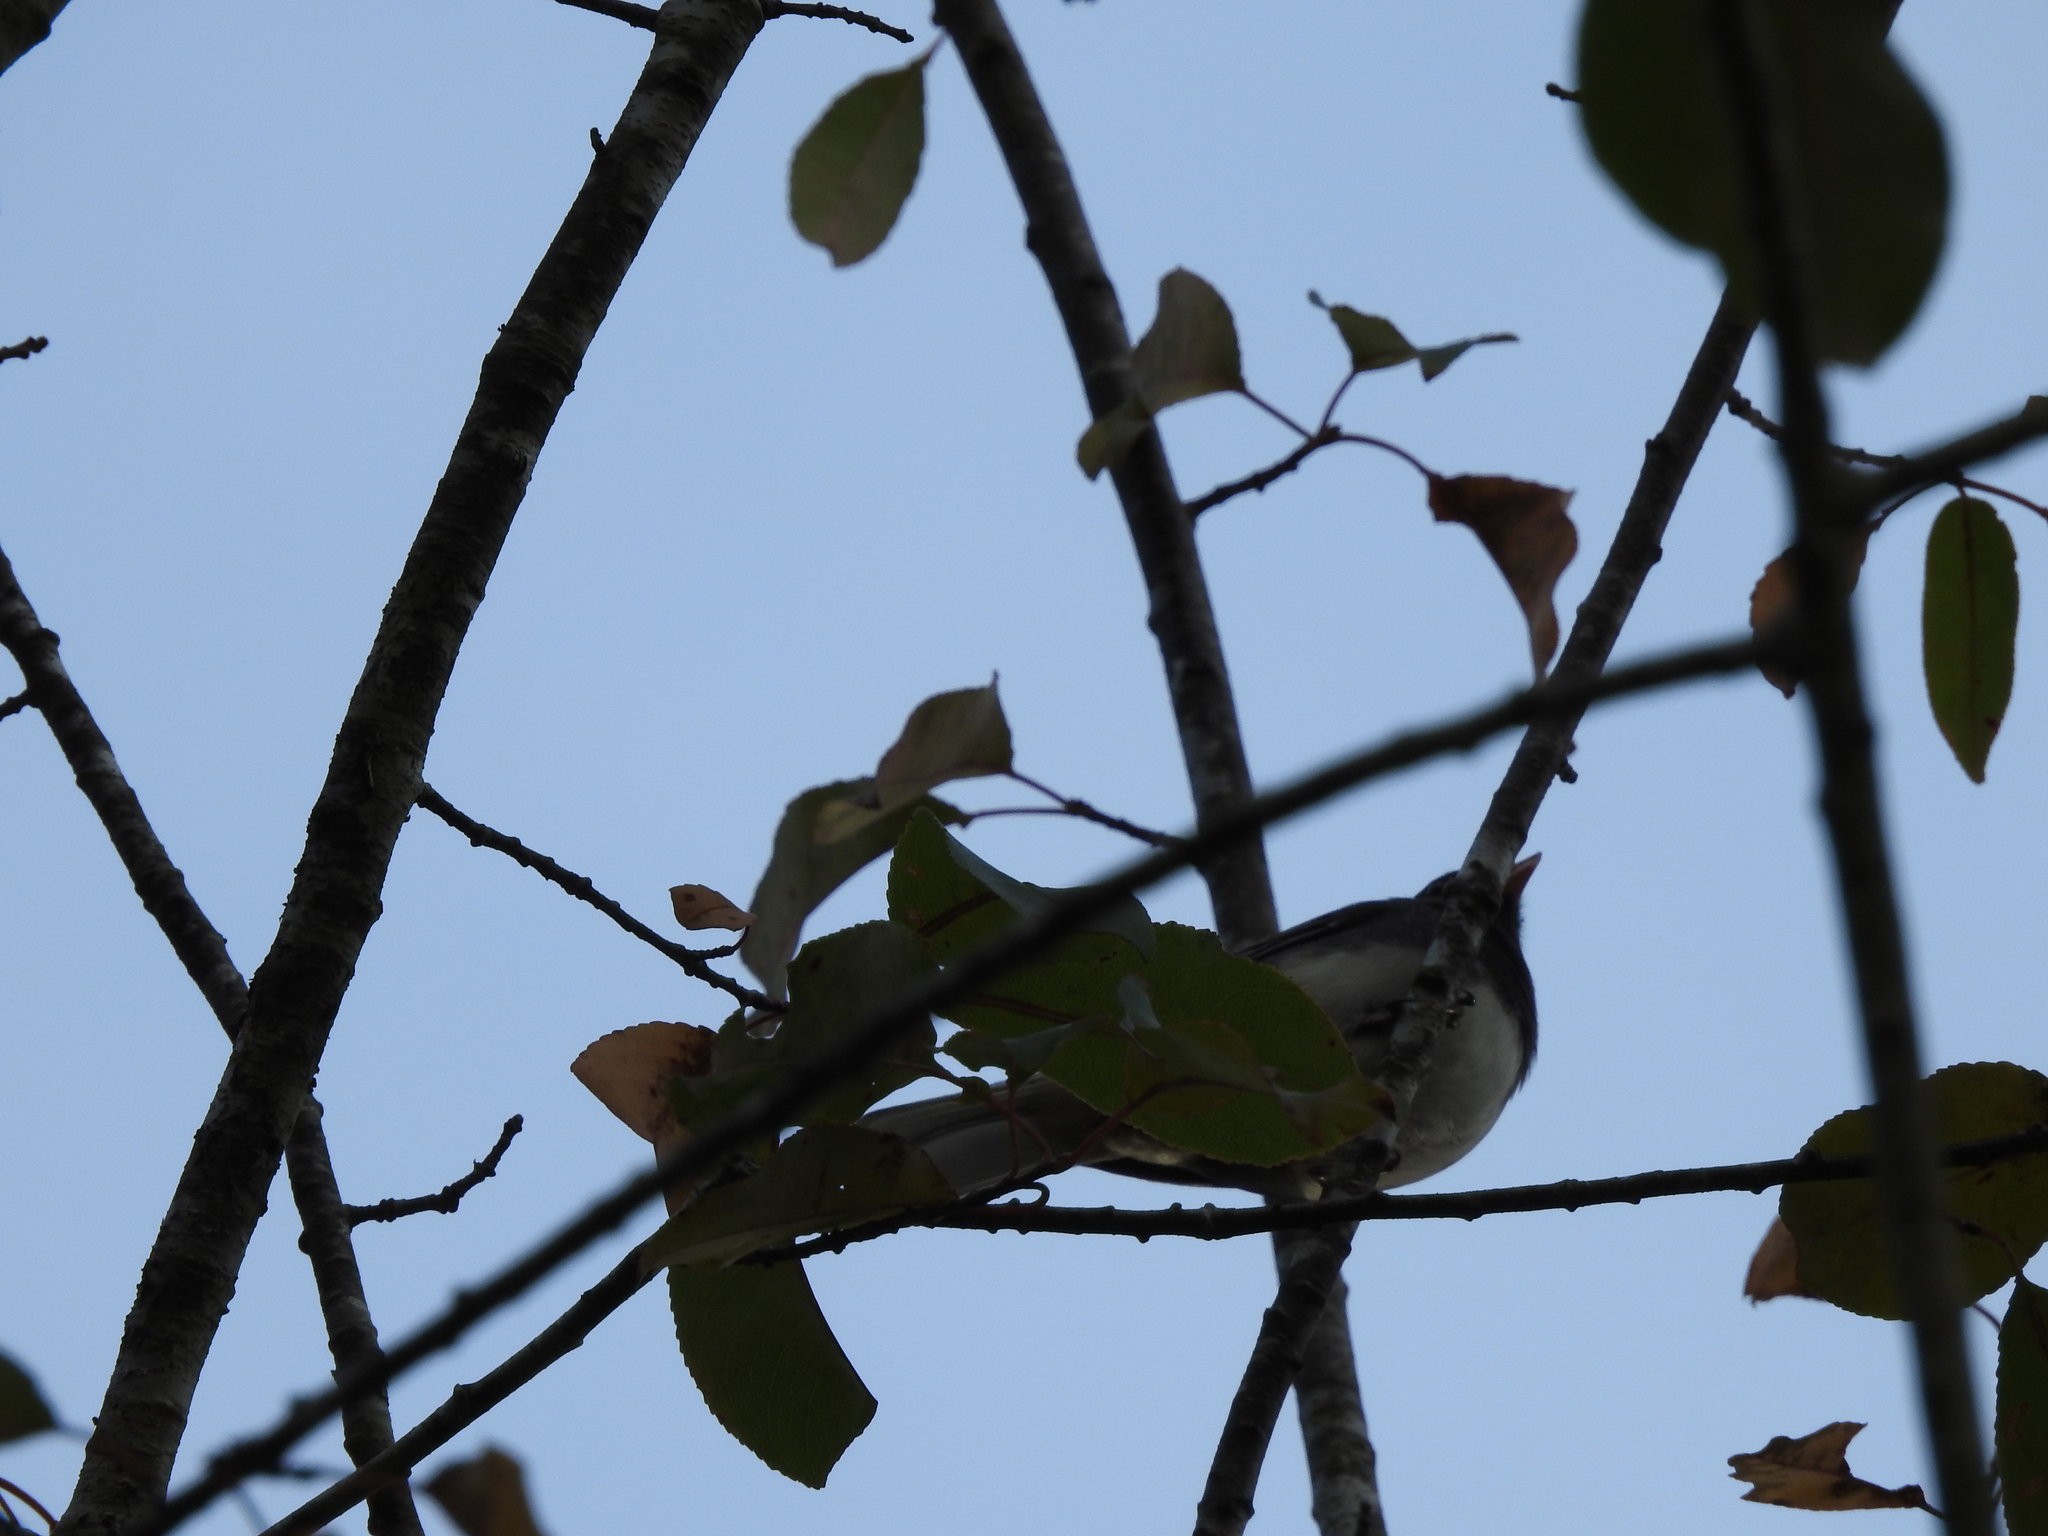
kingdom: Animalia
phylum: Chordata
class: Aves
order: Passeriformes
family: Passerellidae
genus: Junco
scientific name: Junco hyemalis
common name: Dark-eyed junco
